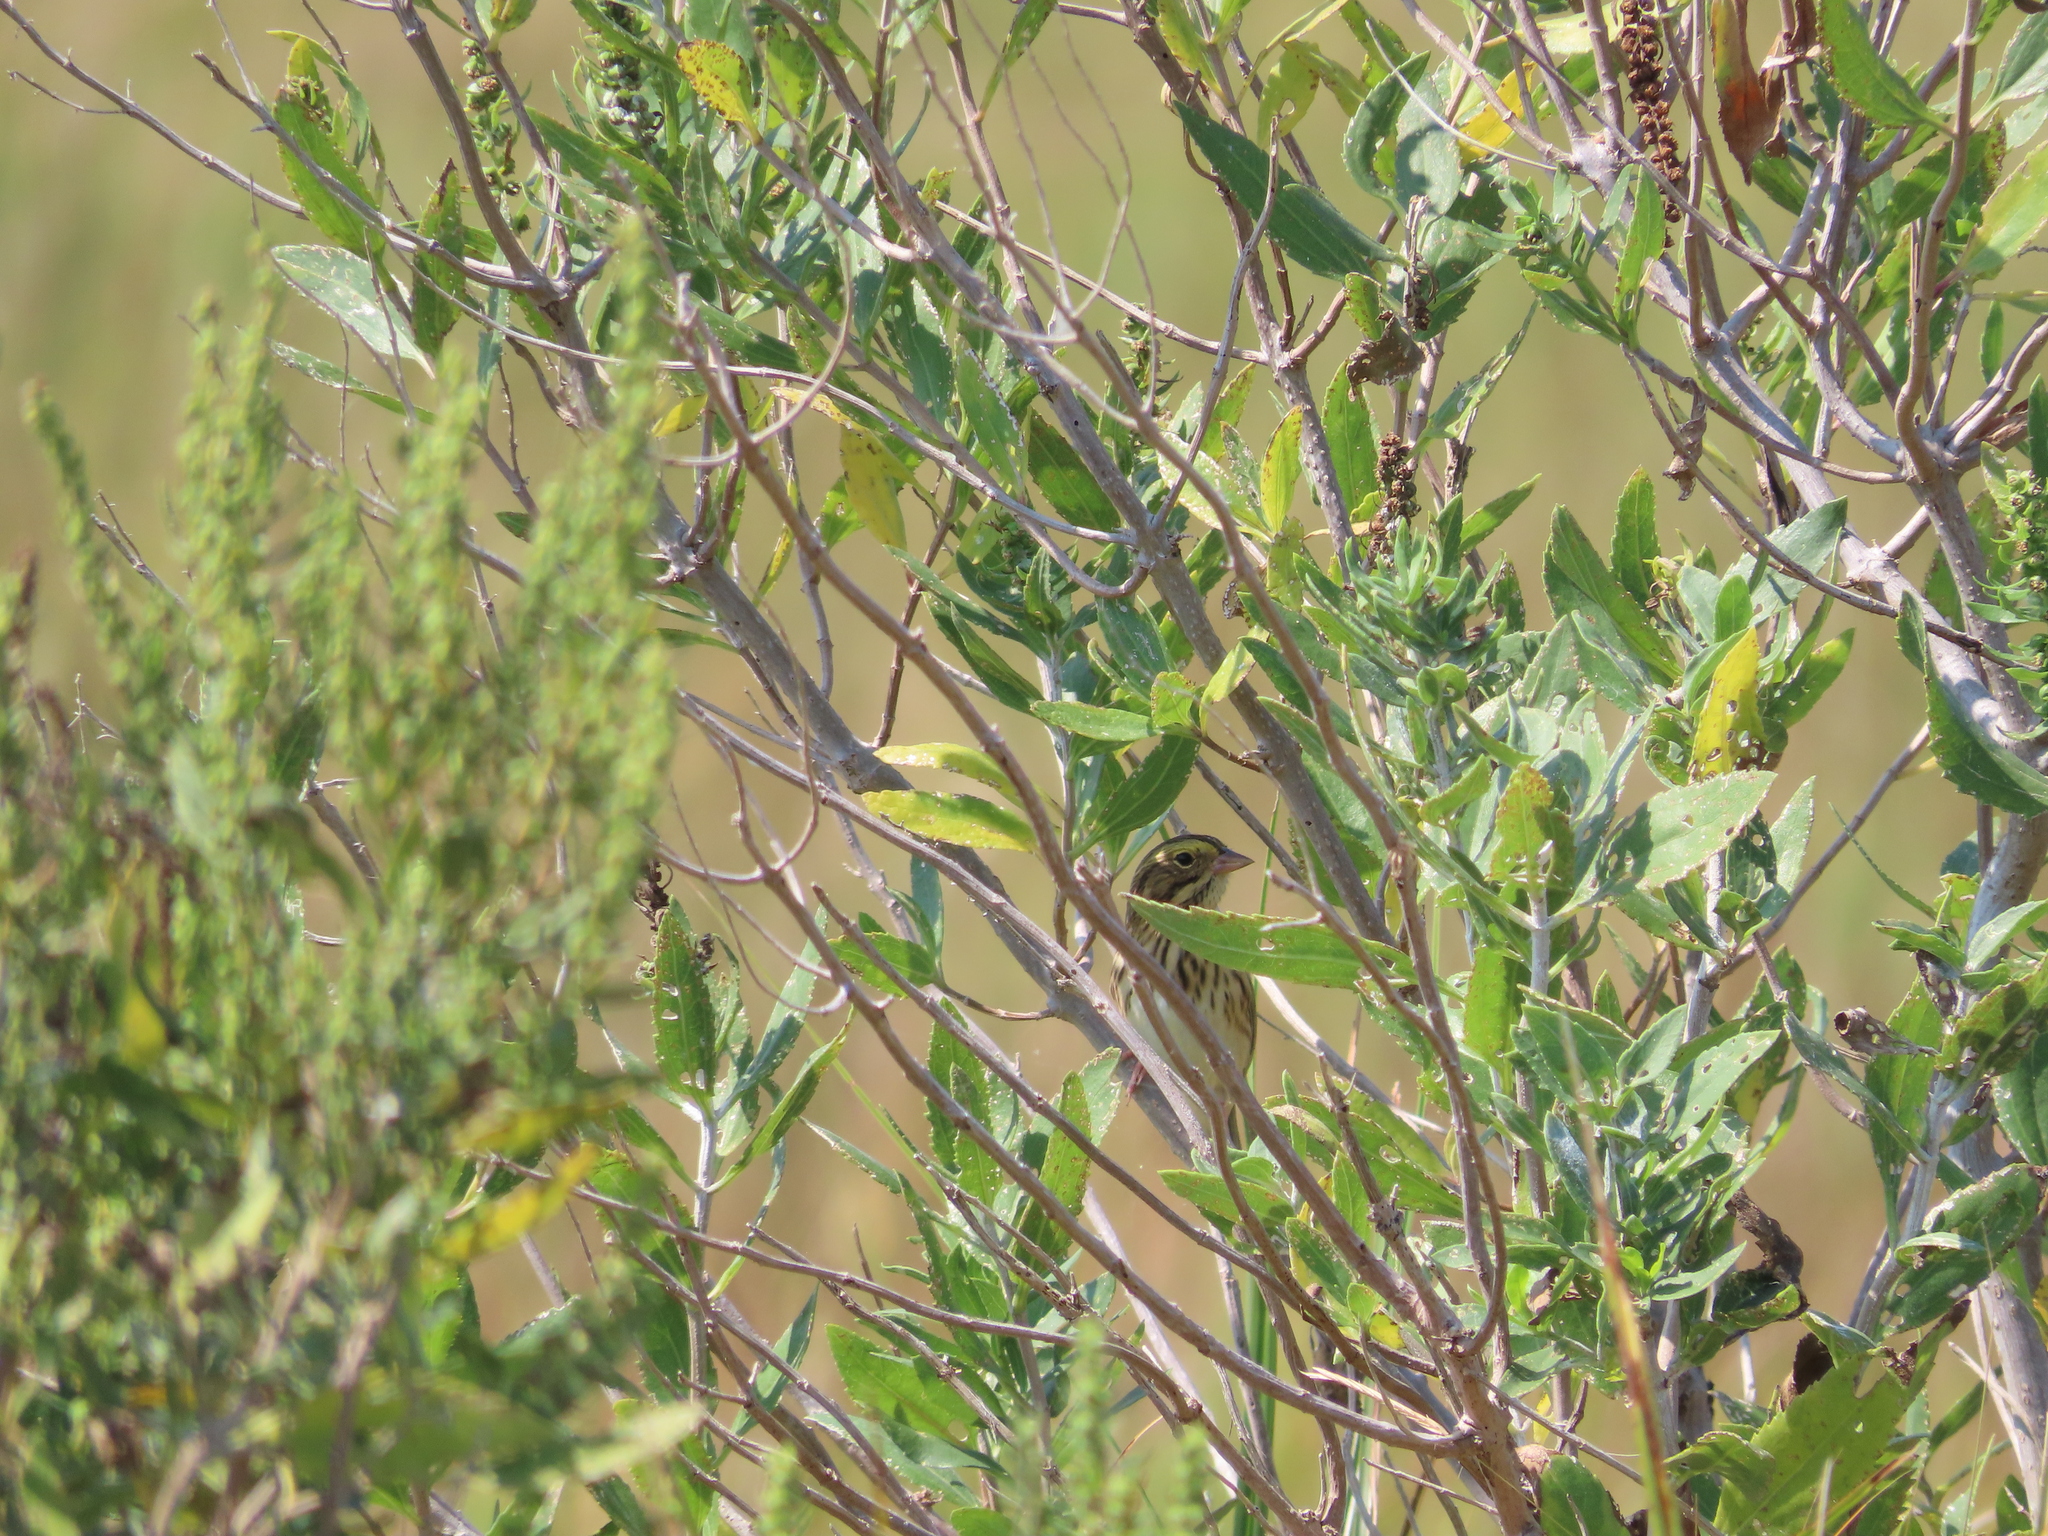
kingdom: Animalia
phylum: Chordata
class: Aves
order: Passeriformes
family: Passerellidae
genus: Passerculus
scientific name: Passerculus sandwichensis
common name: Savannah sparrow
